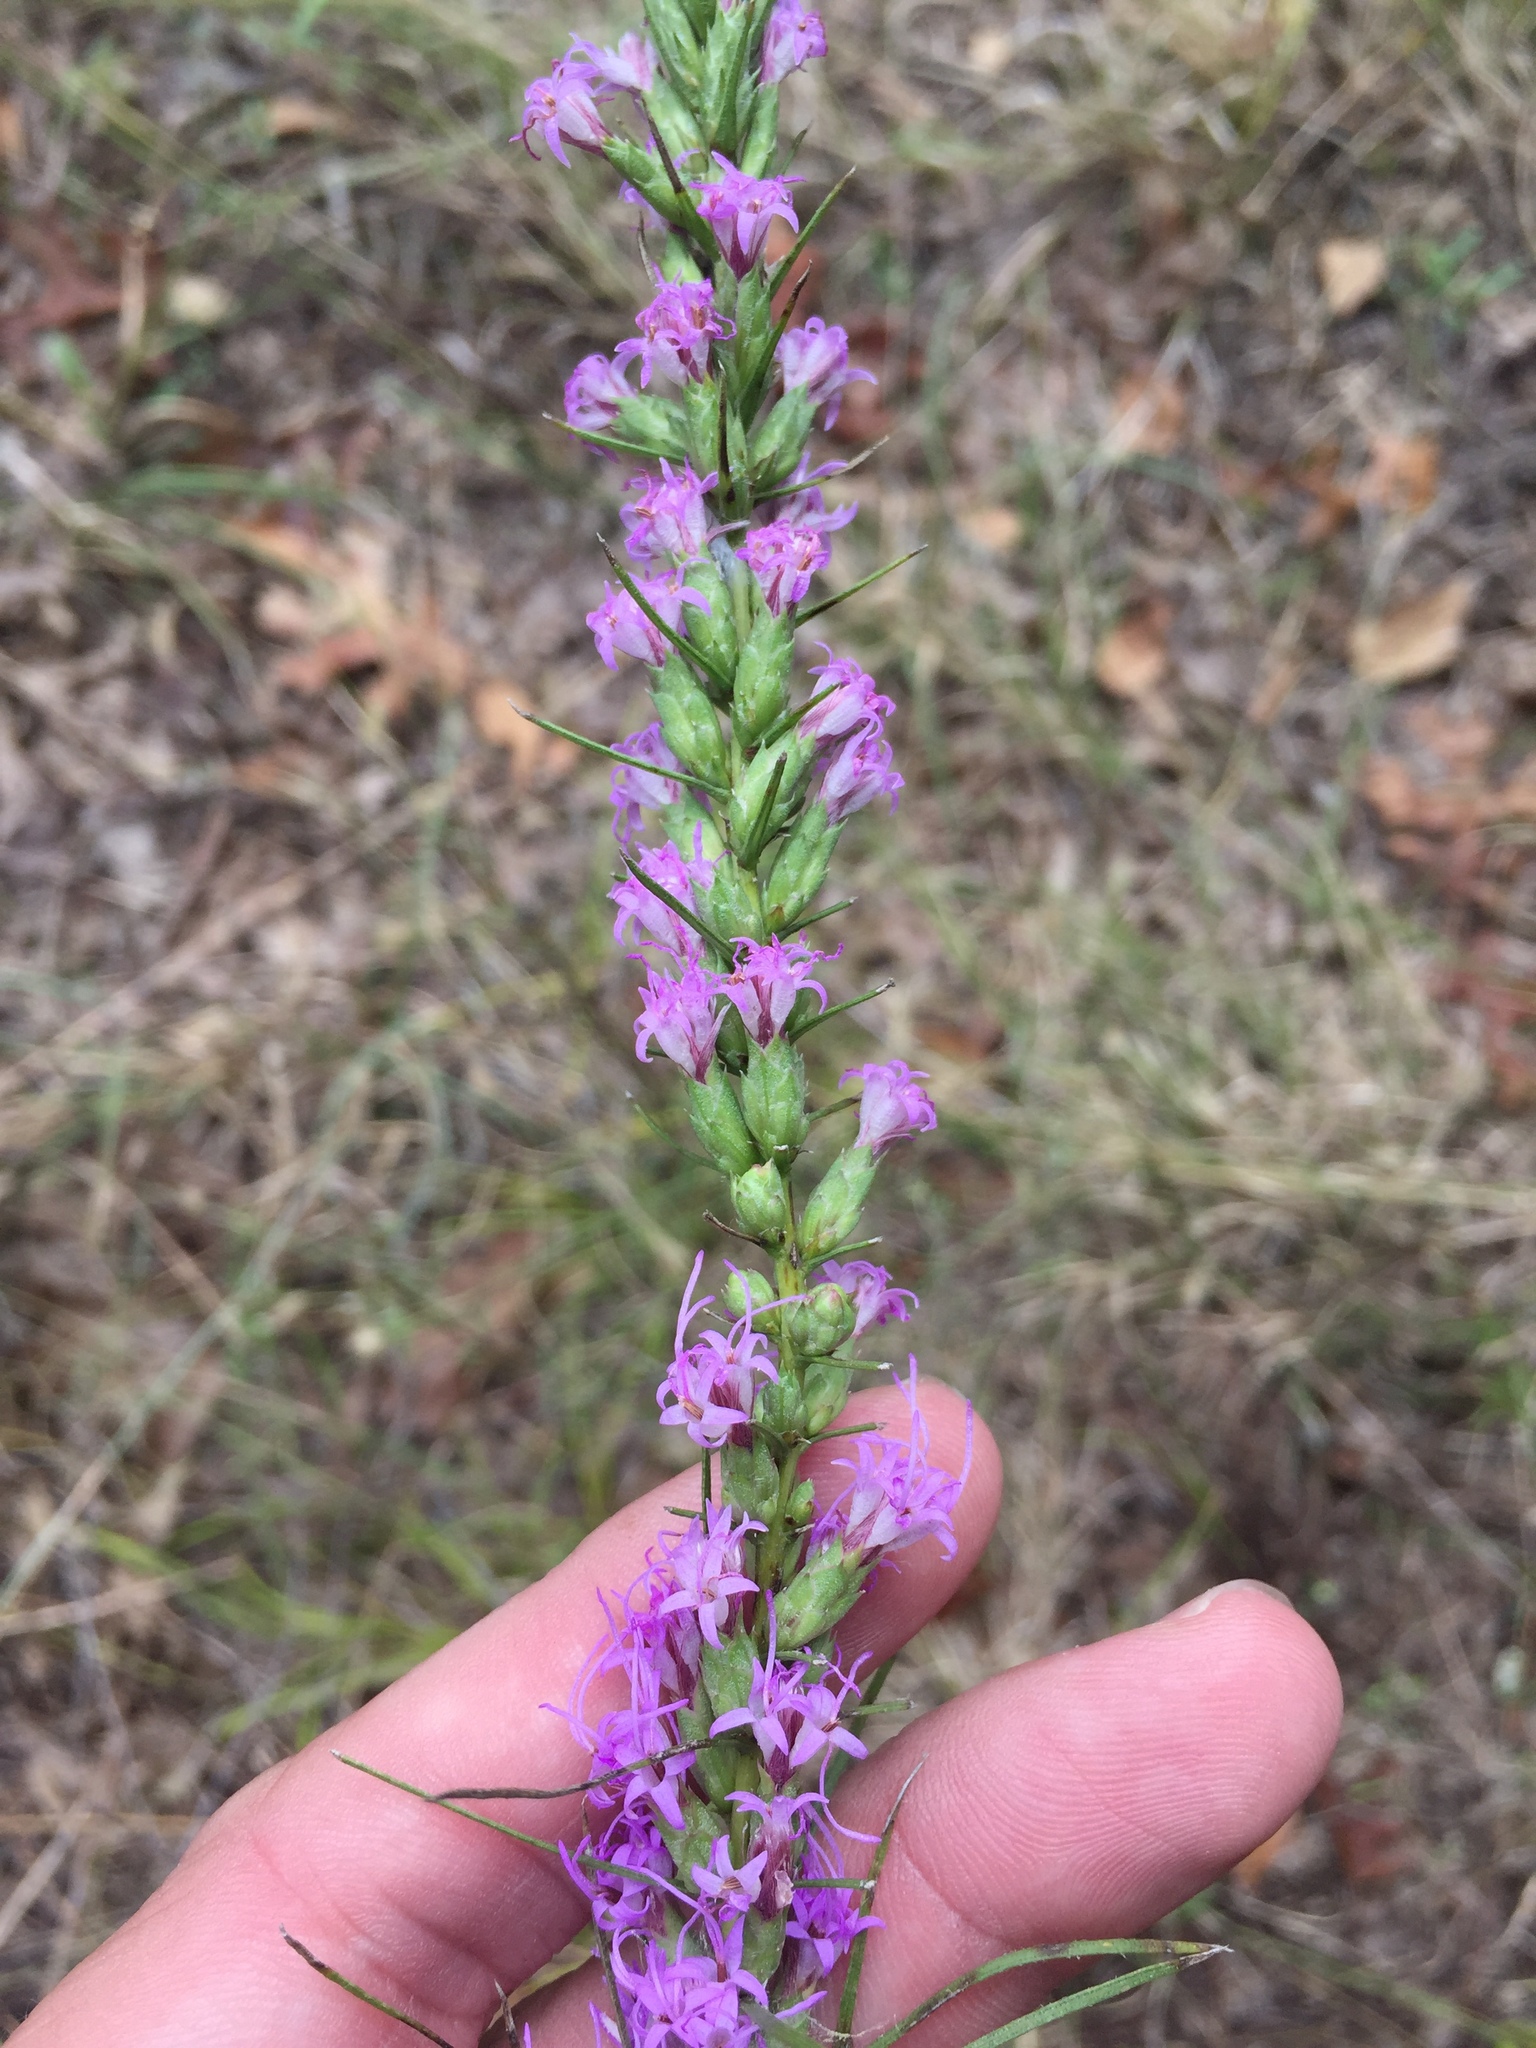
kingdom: Plantae
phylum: Tracheophyta
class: Magnoliopsida
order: Asterales
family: Asteraceae
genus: Liatris
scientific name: Liatris punctata
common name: Dotted gayfeather
